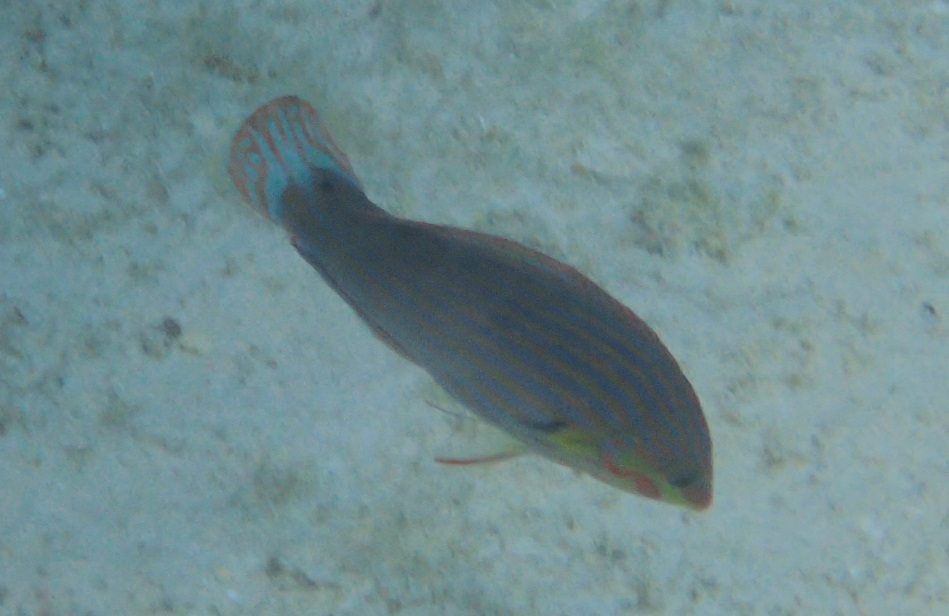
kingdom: Animalia
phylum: Chordata
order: Perciformes
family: Labridae
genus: Halichoeres
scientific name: Halichoeres melanurus
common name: Hoeven's wrasse
